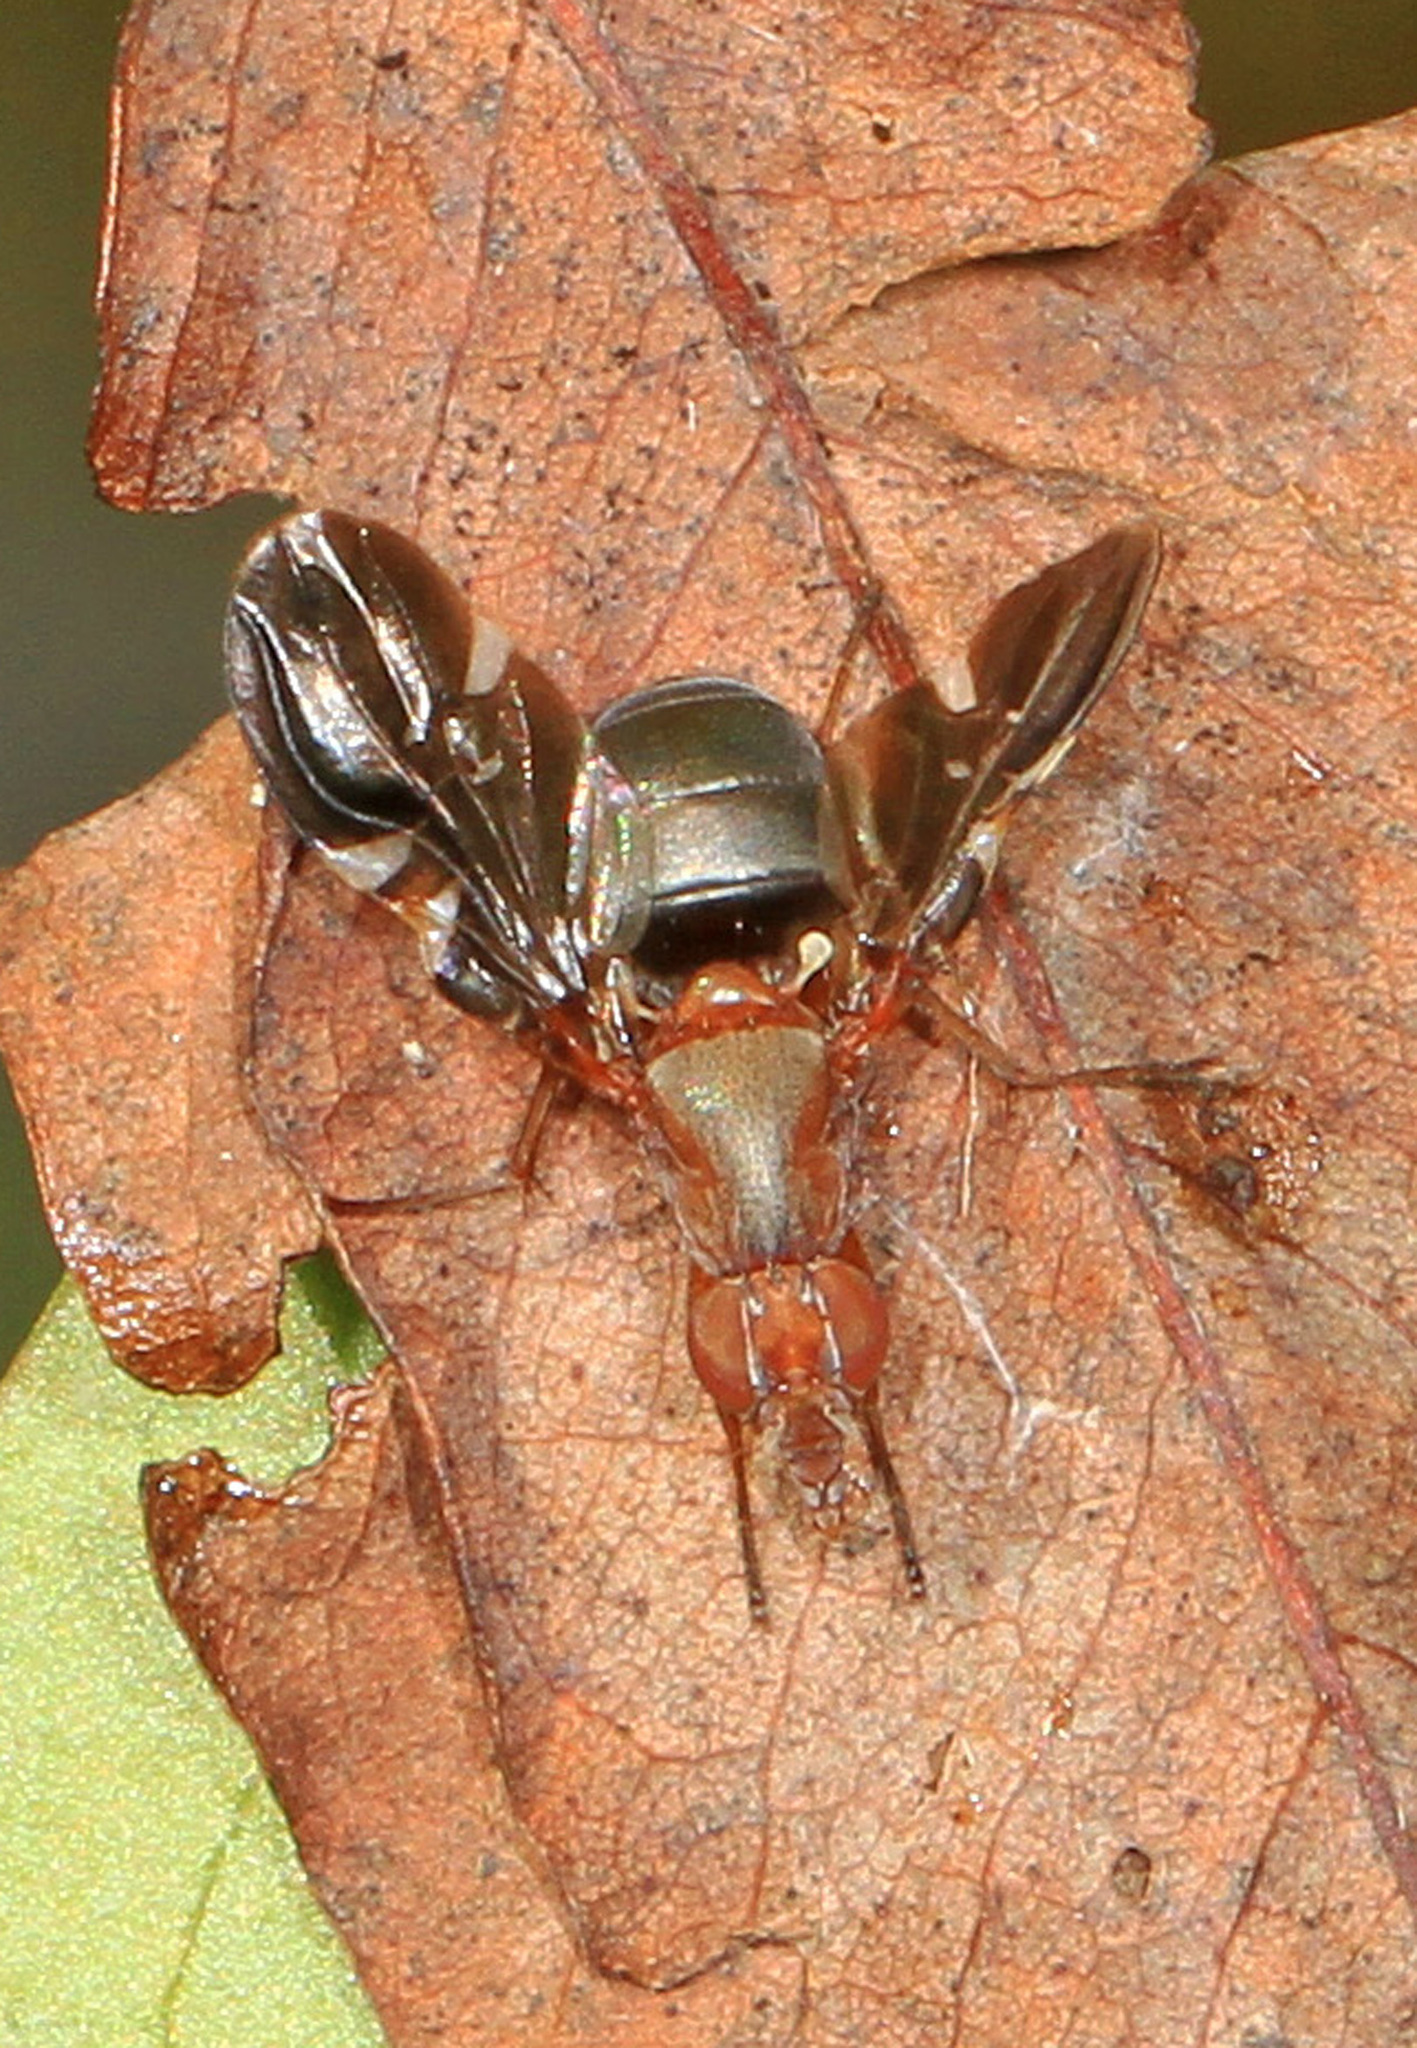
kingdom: Animalia
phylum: Arthropoda
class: Insecta
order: Diptera
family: Ulidiidae
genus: Delphinia
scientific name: Delphinia picta
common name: Common picture-winged fly
